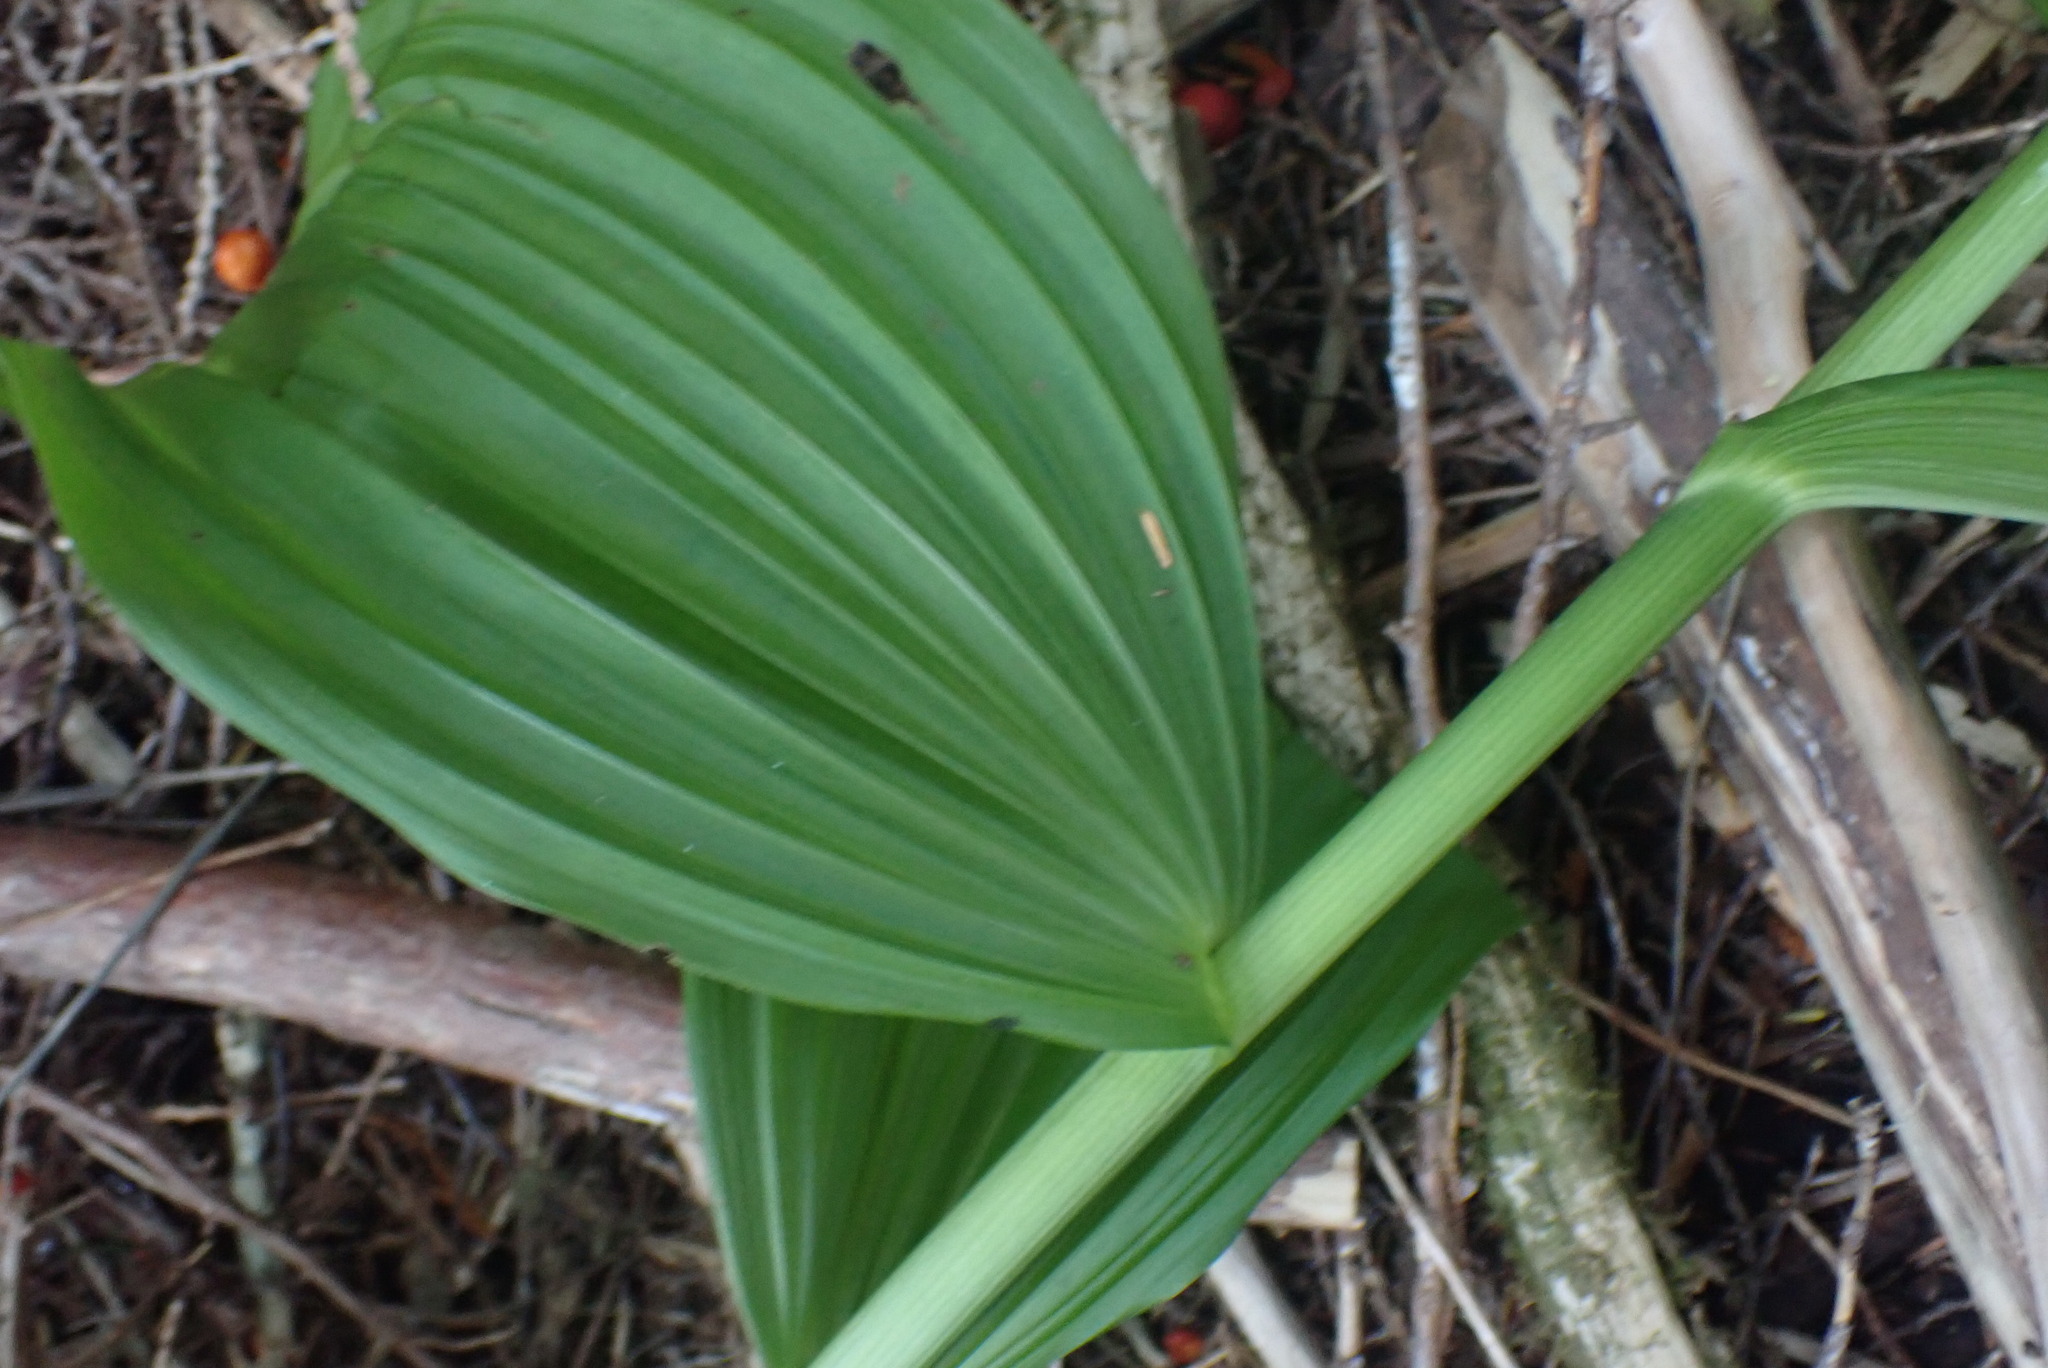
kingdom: Plantae
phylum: Tracheophyta
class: Liliopsida
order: Liliales
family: Melanthiaceae
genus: Veratrum
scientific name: Veratrum viride
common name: American false hellebore
